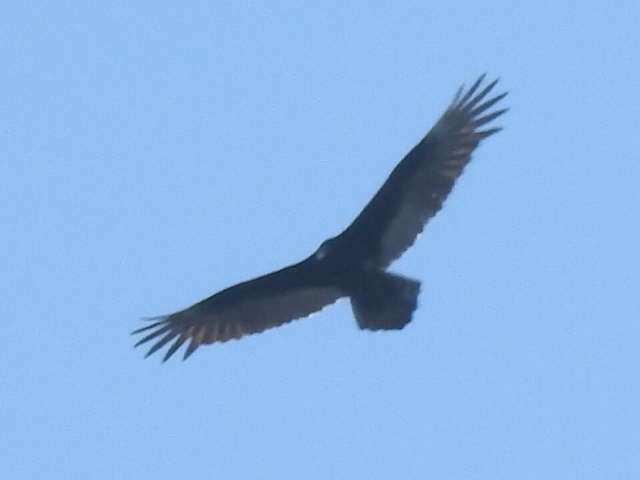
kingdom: Animalia
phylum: Chordata
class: Aves
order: Accipitriformes
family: Cathartidae
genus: Cathartes
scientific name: Cathartes aura
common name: Turkey vulture
